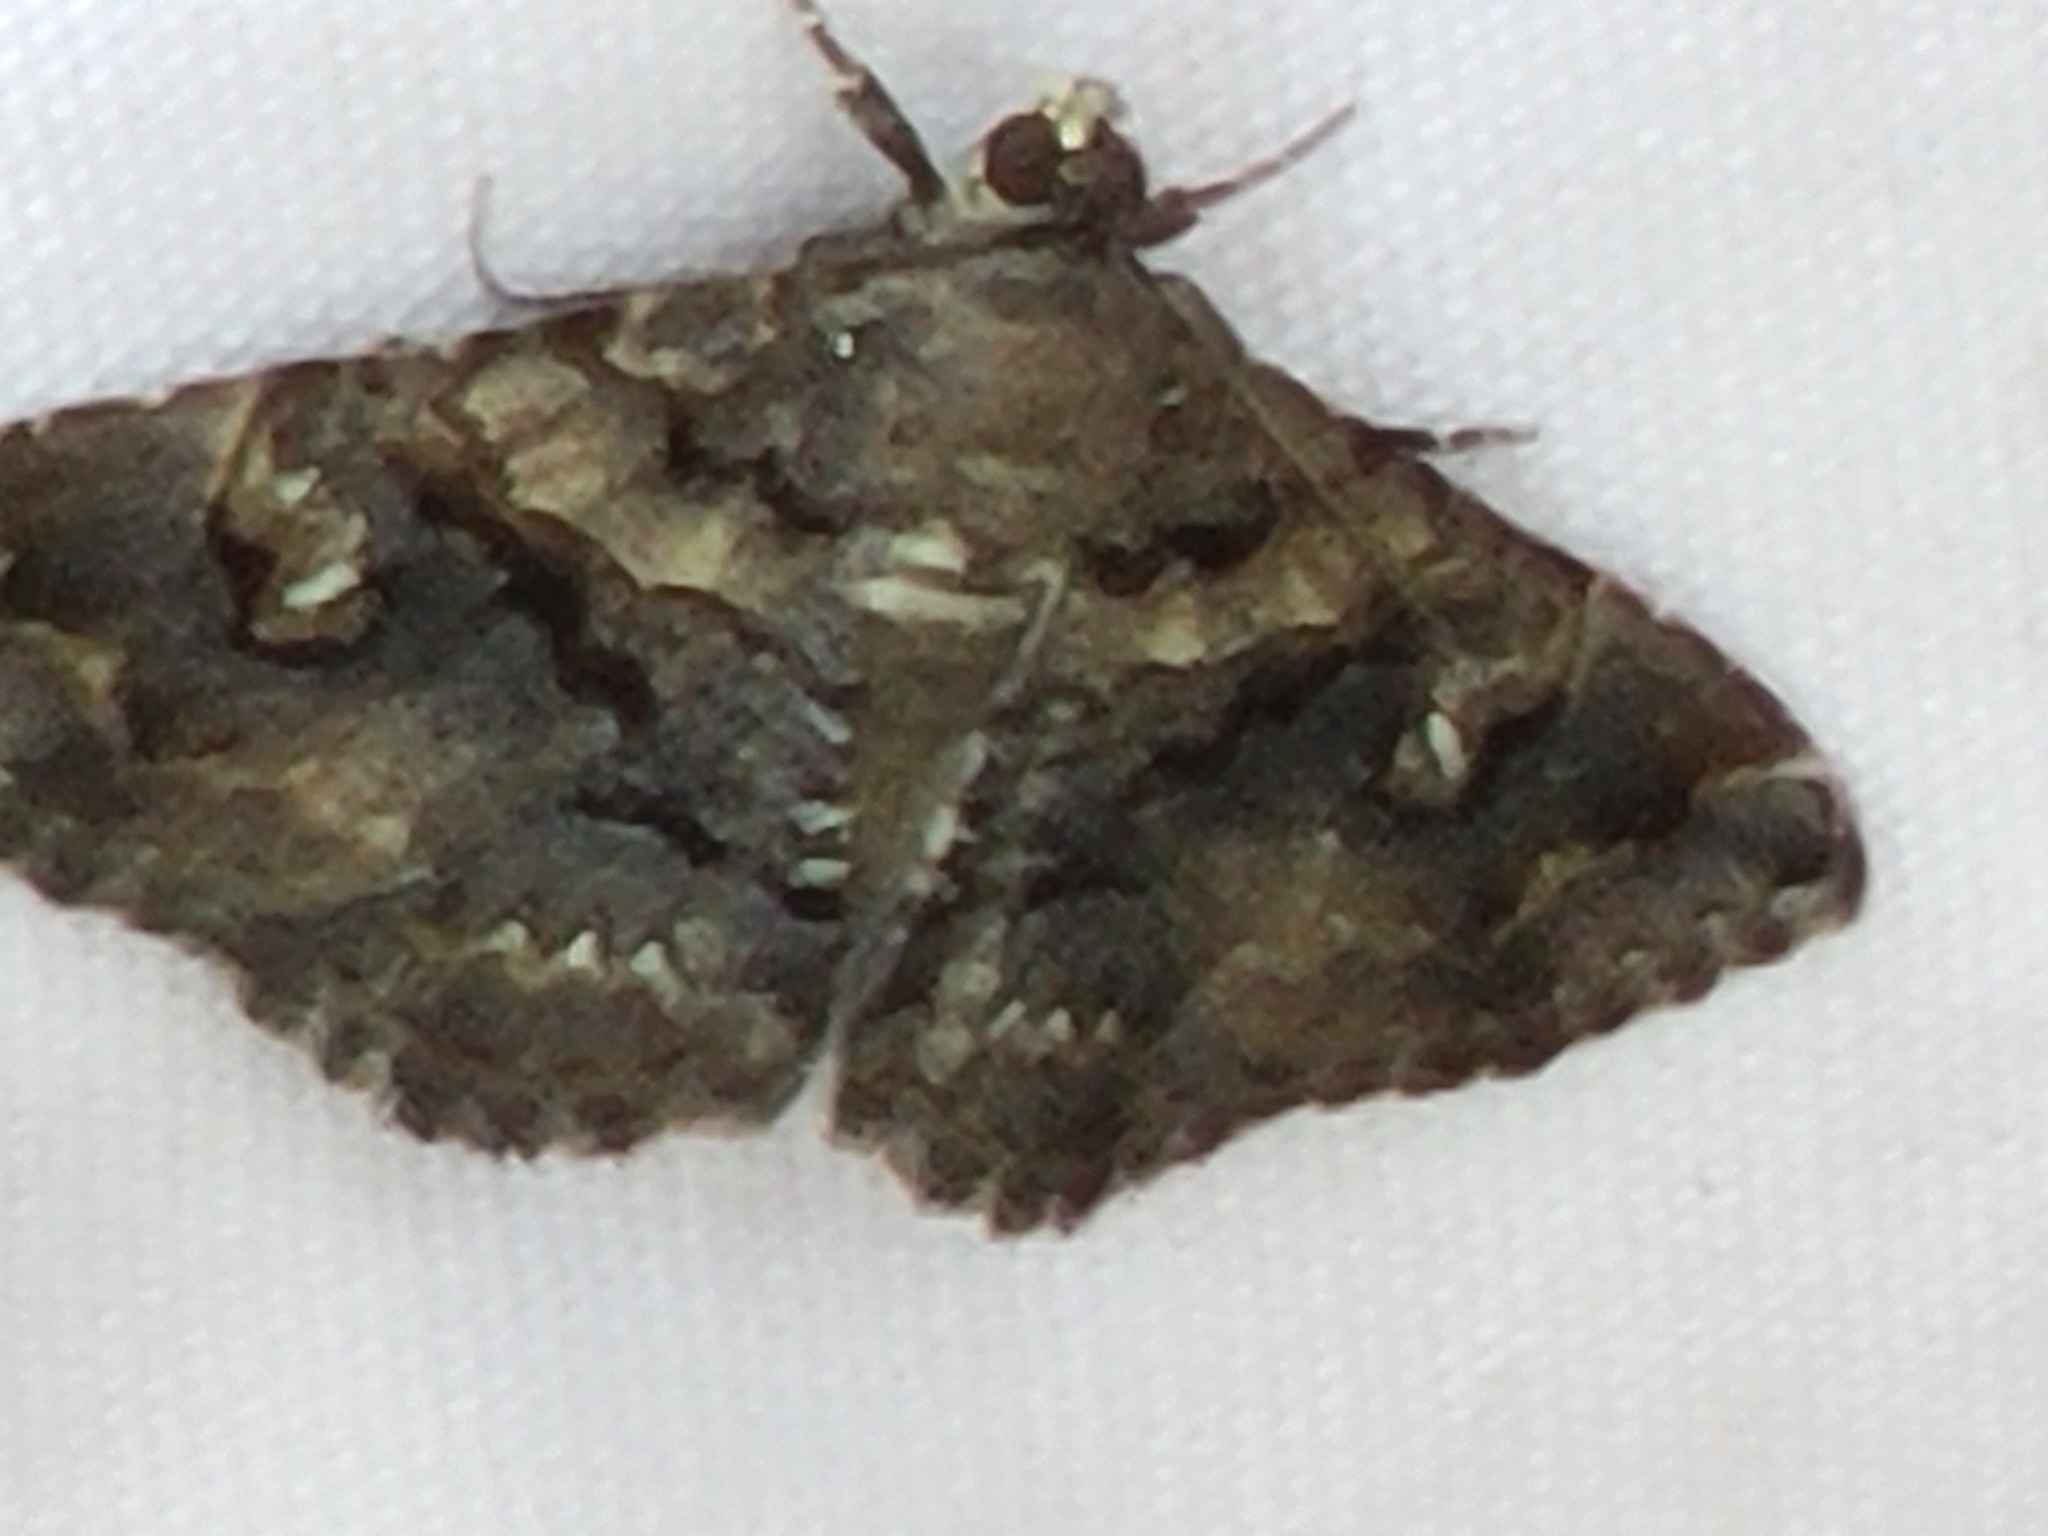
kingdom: Animalia
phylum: Arthropoda
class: Insecta
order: Lepidoptera
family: Erebidae
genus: Toxonprucha
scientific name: Toxonprucha excavata
